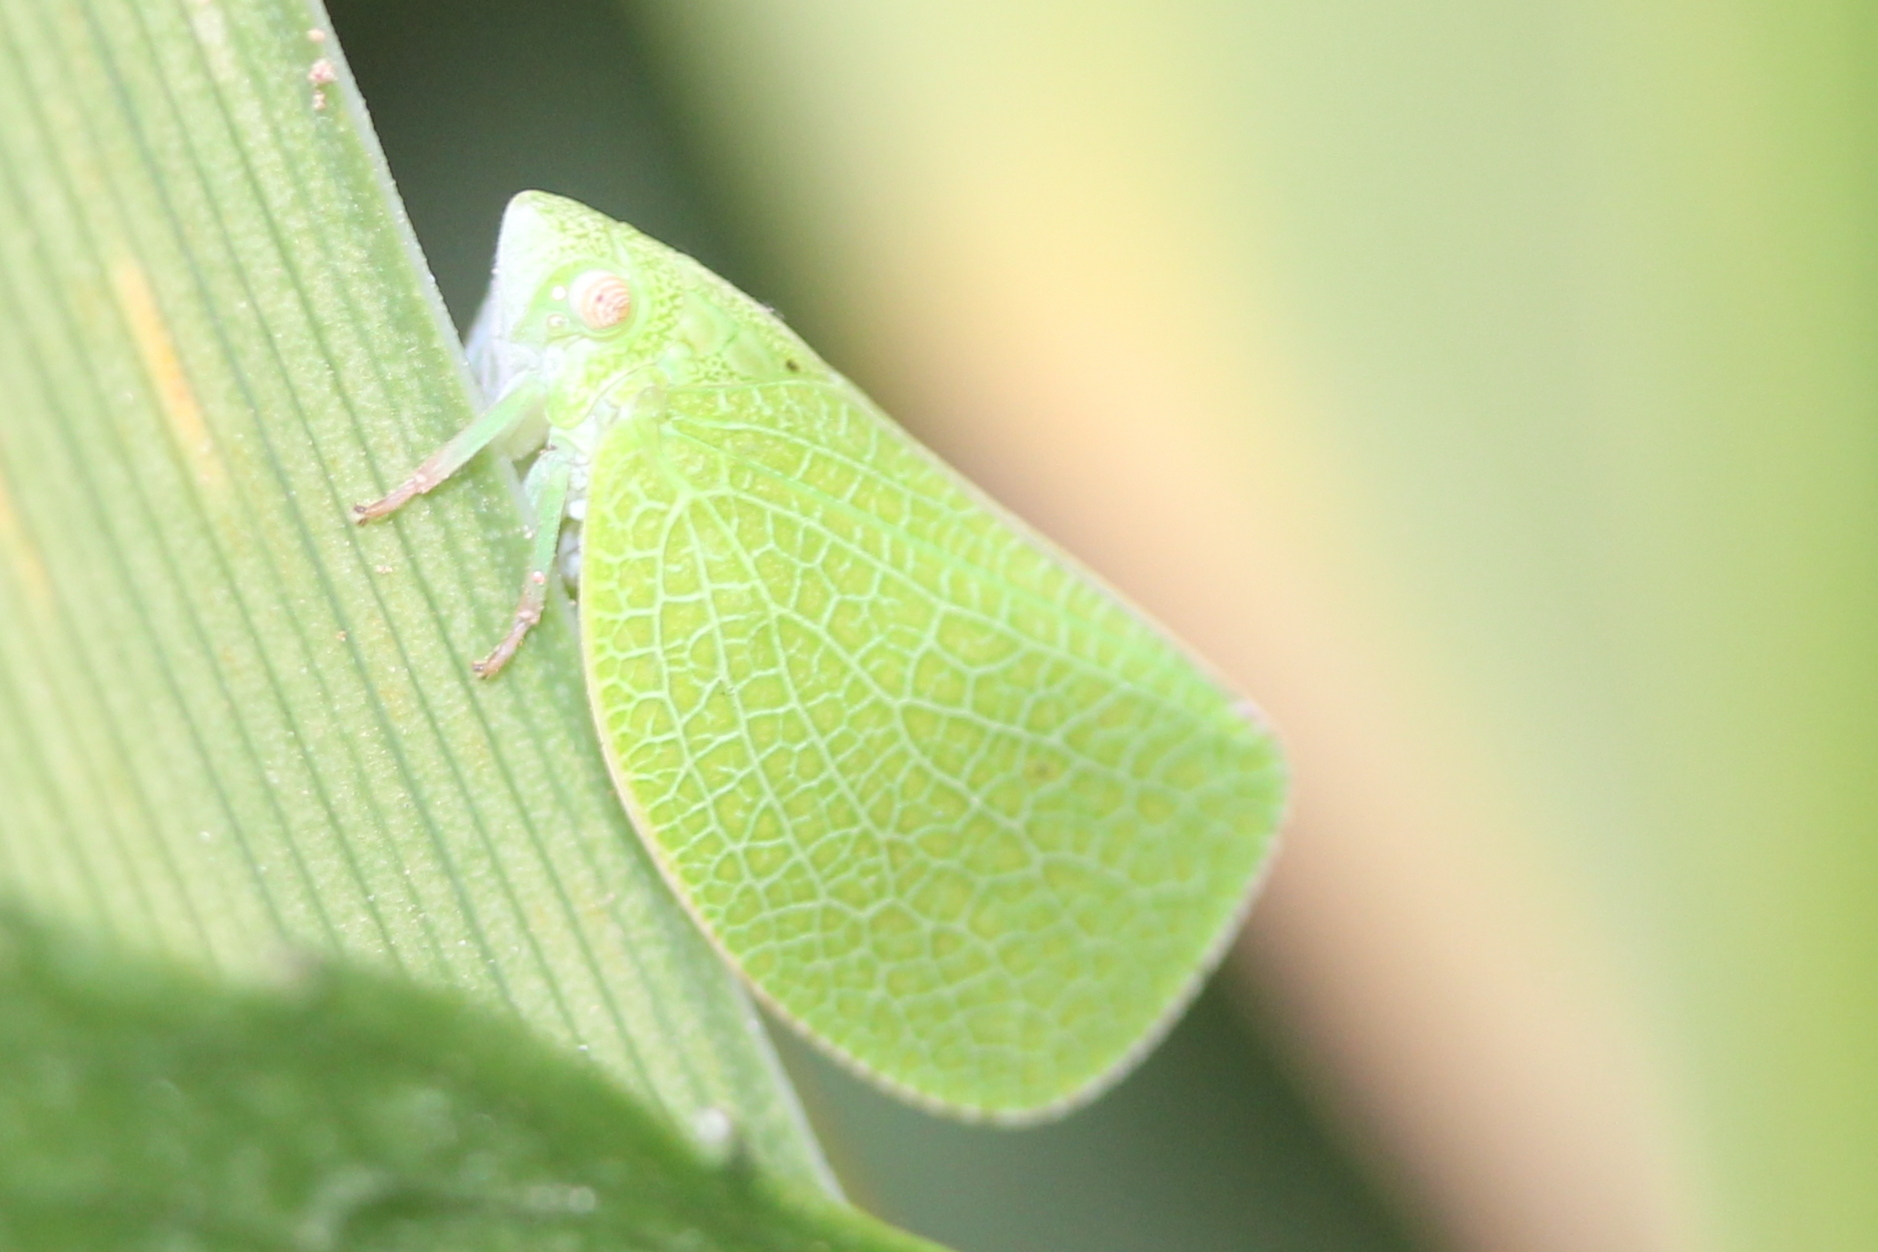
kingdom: Animalia
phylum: Arthropoda
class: Insecta
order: Hemiptera
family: Acanaloniidae
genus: Acanalonia
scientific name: Acanalonia conica
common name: Green cone-headed planthopper
